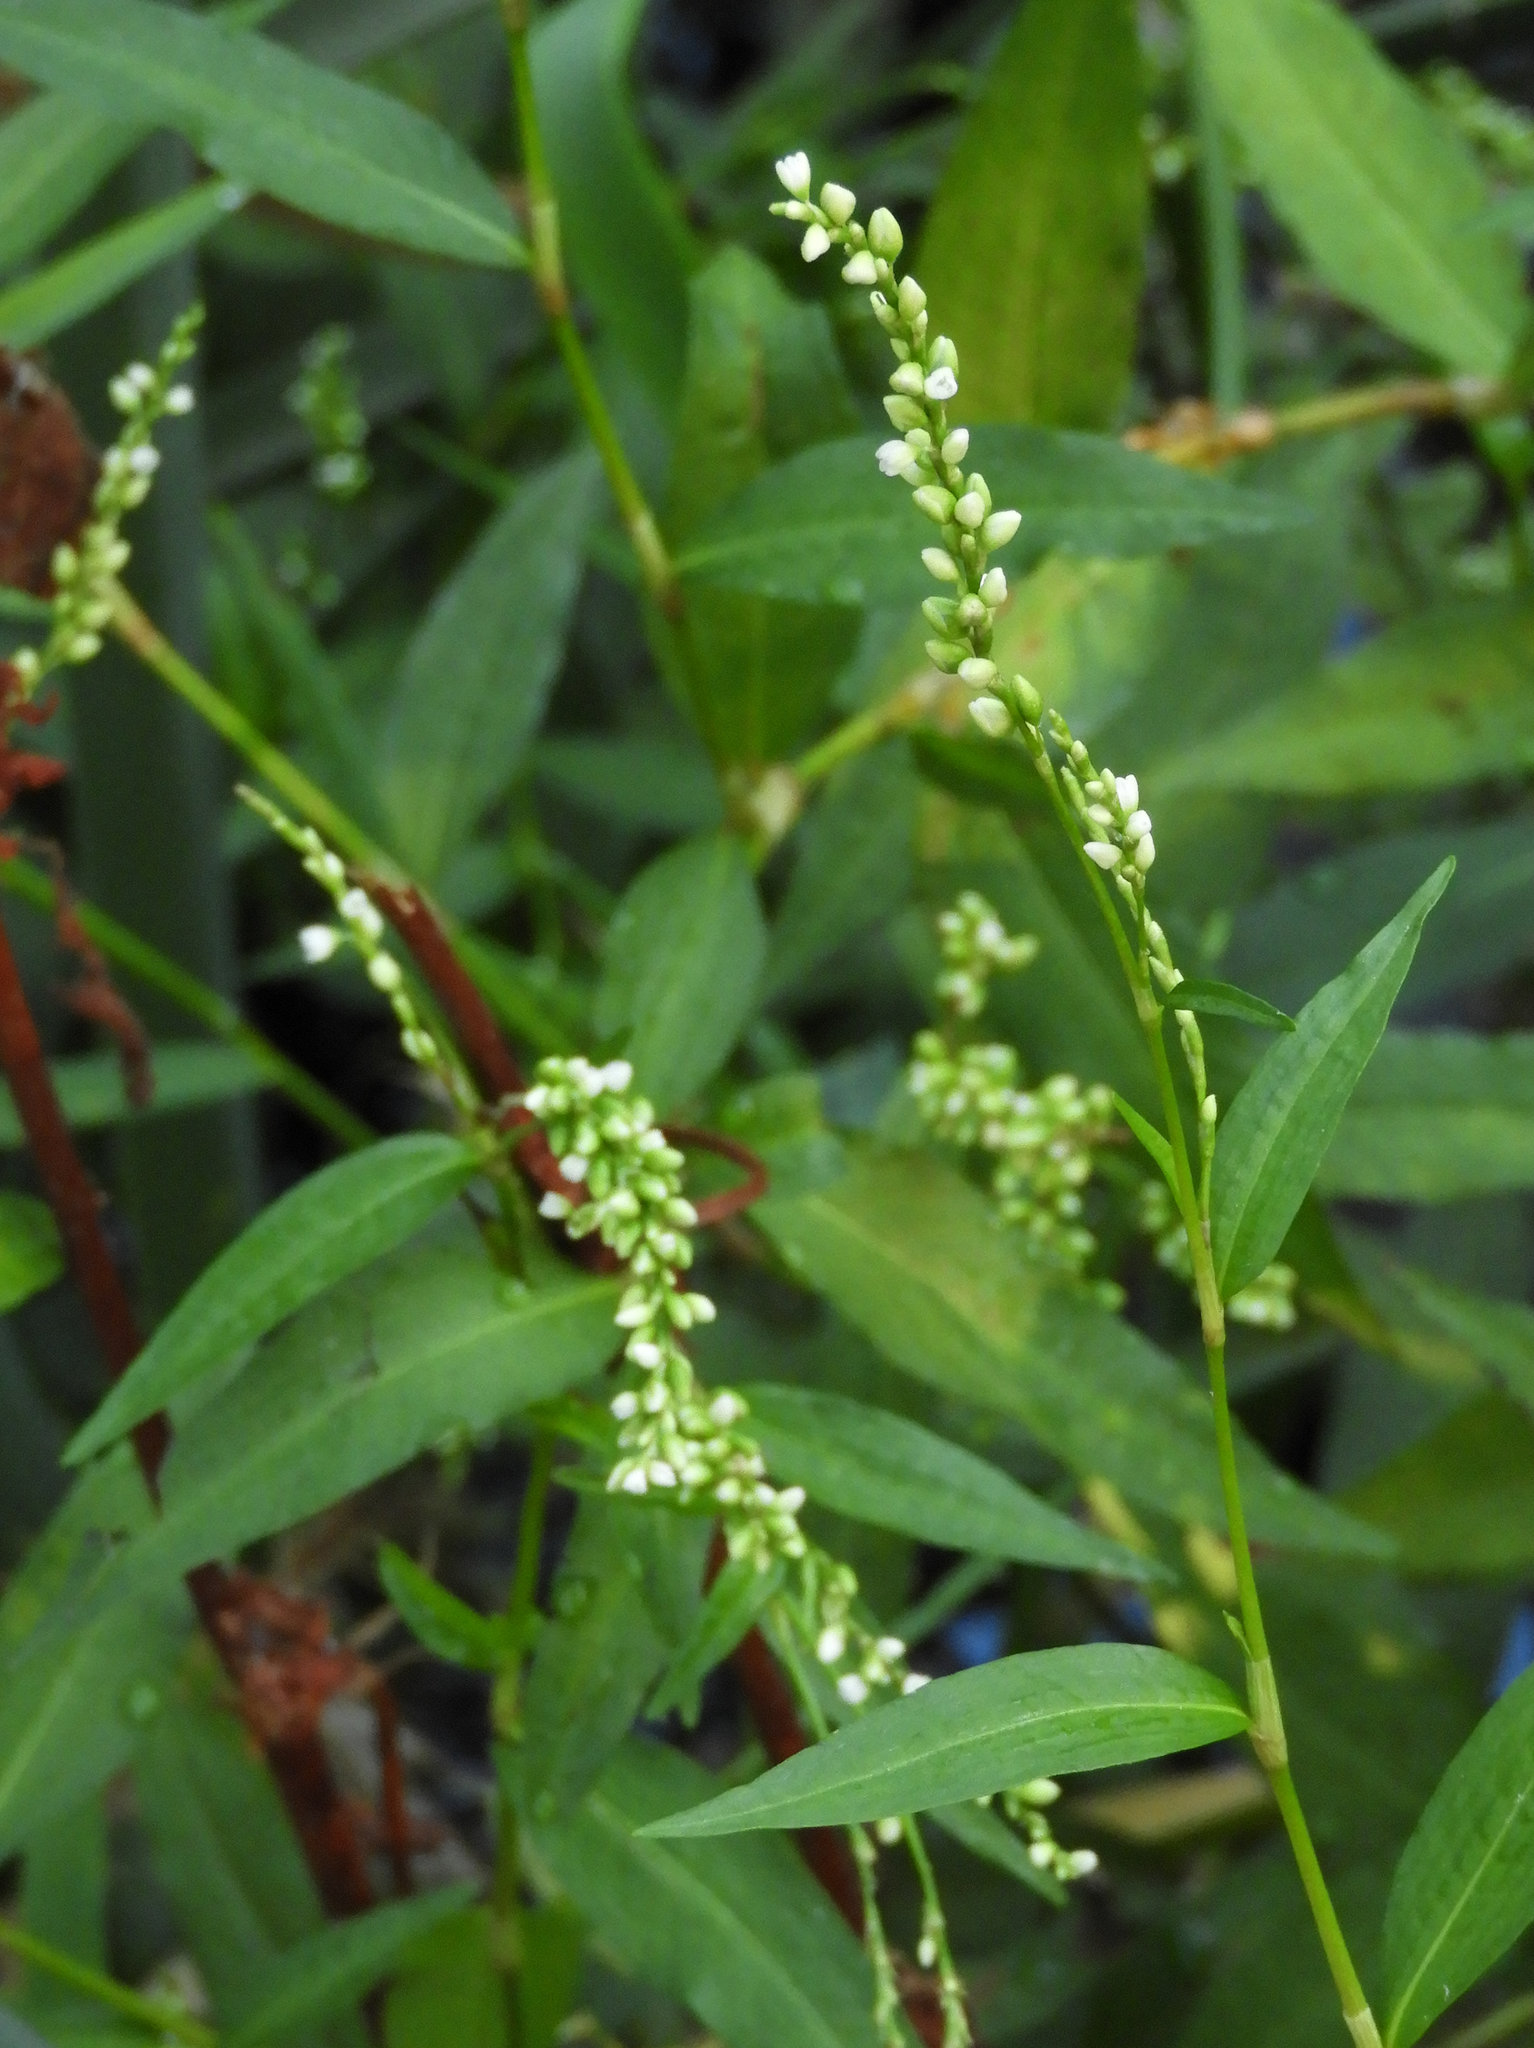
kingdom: Plantae
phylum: Tracheophyta
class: Magnoliopsida
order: Caryophyllales
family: Polygonaceae
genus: Persicaria
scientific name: Persicaria hydropiperoides
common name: Swamp smartweed
